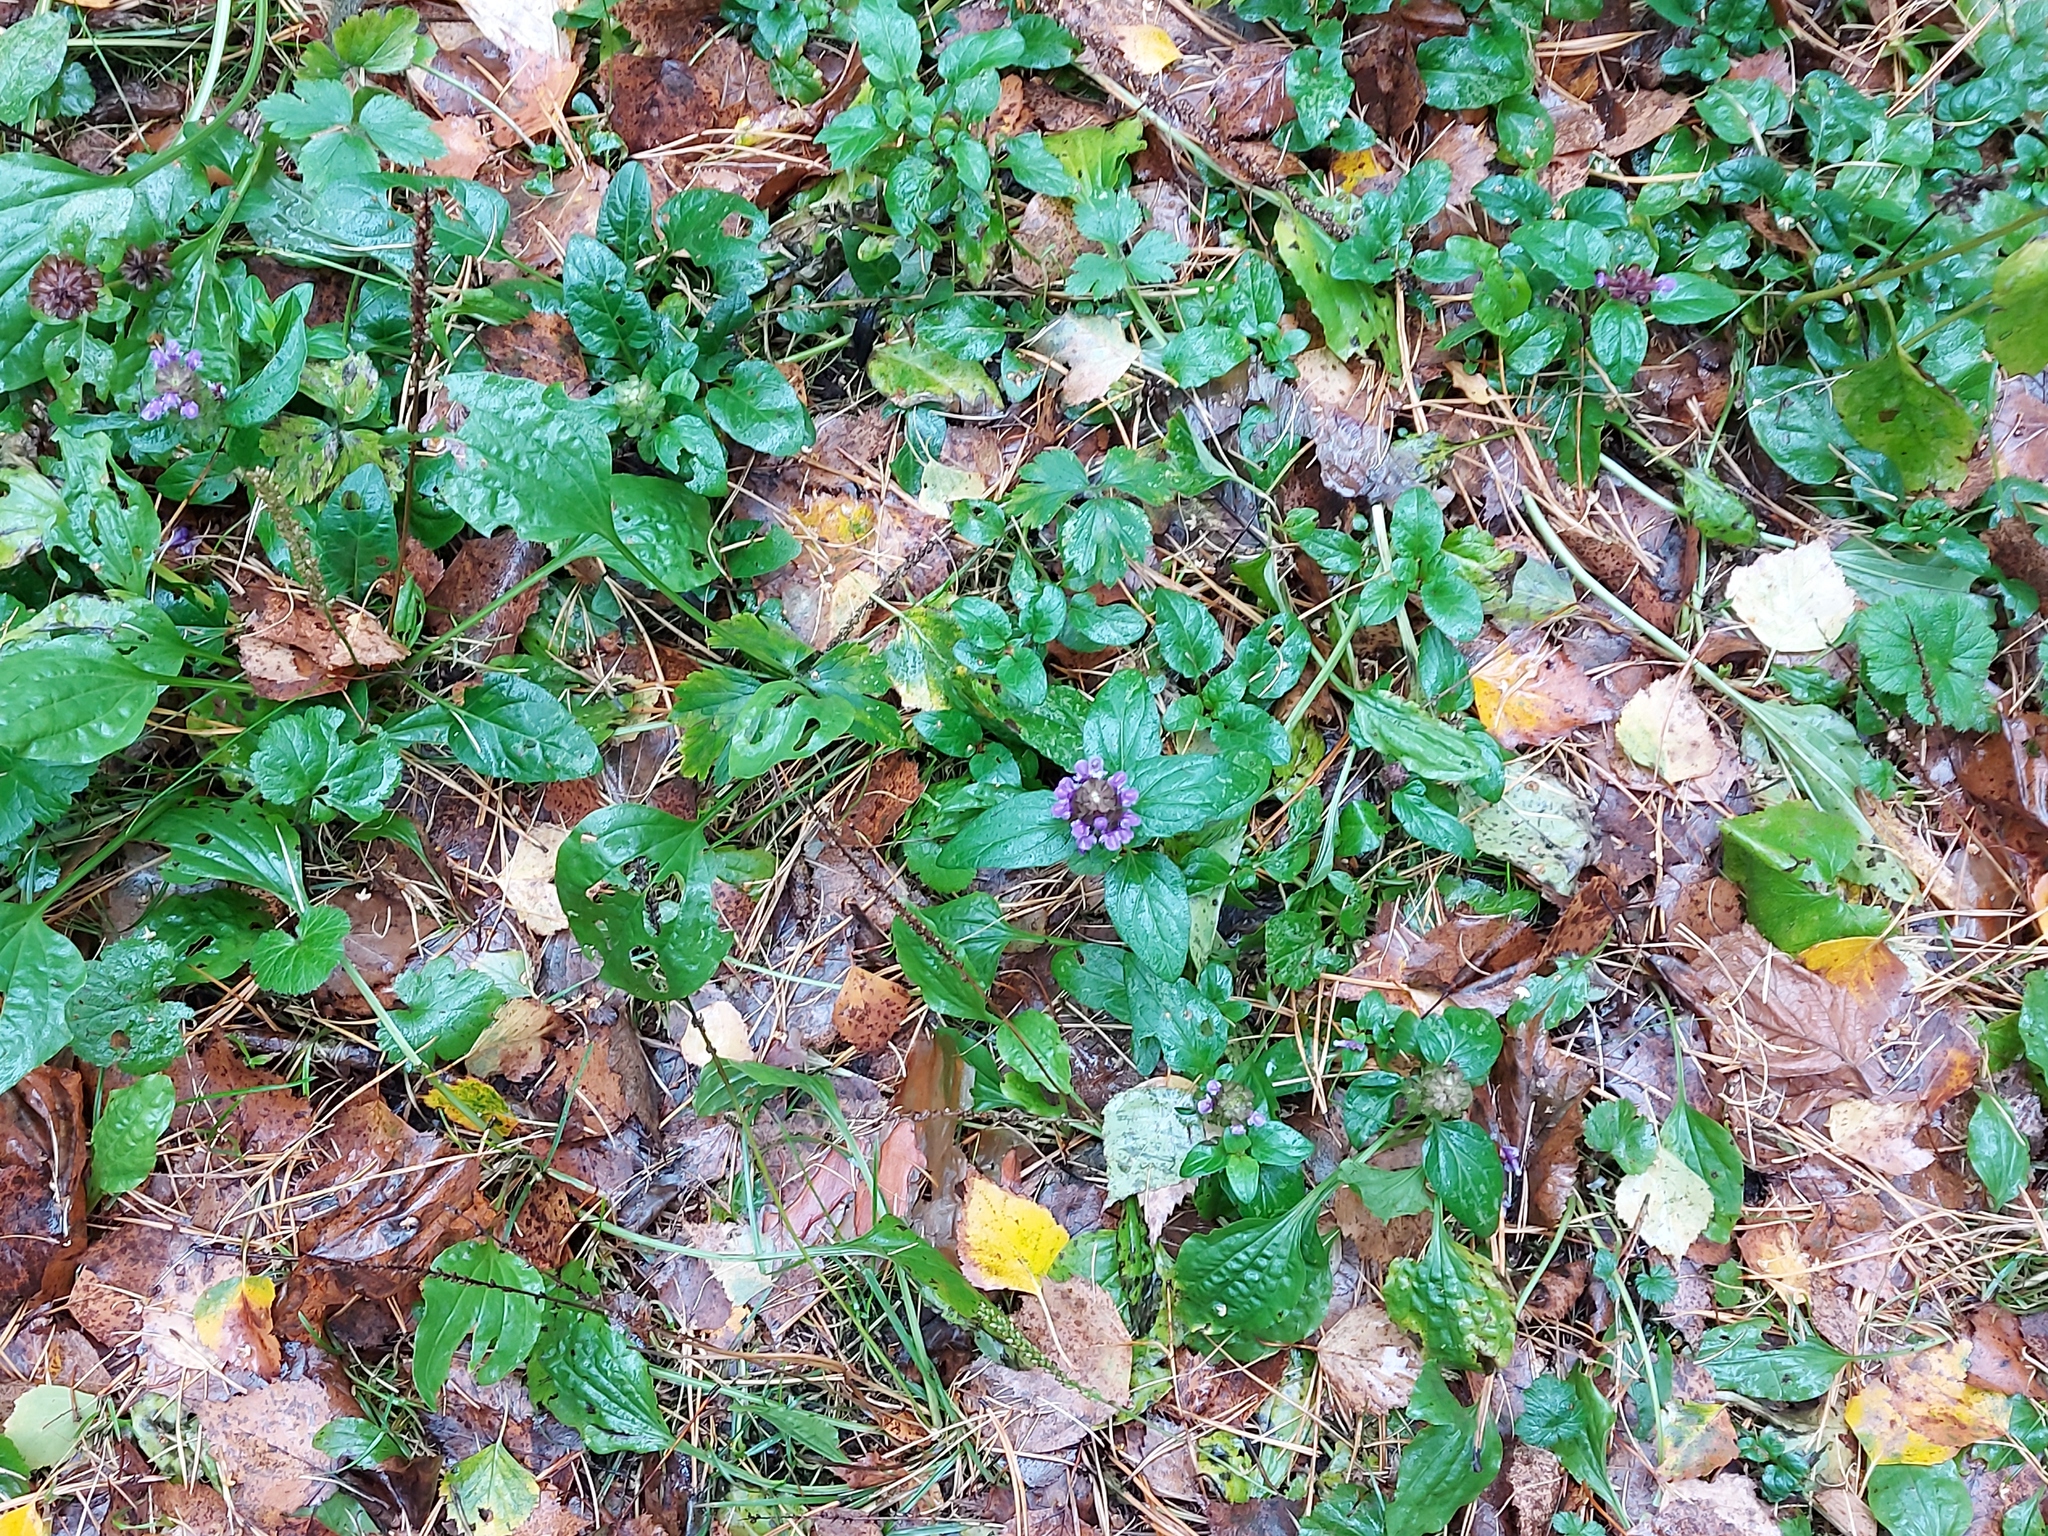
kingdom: Plantae
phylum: Tracheophyta
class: Magnoliopsida
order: Lamiales
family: Lamiaceae
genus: Prunella
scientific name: Prunella vulgaris
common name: Heal-all
